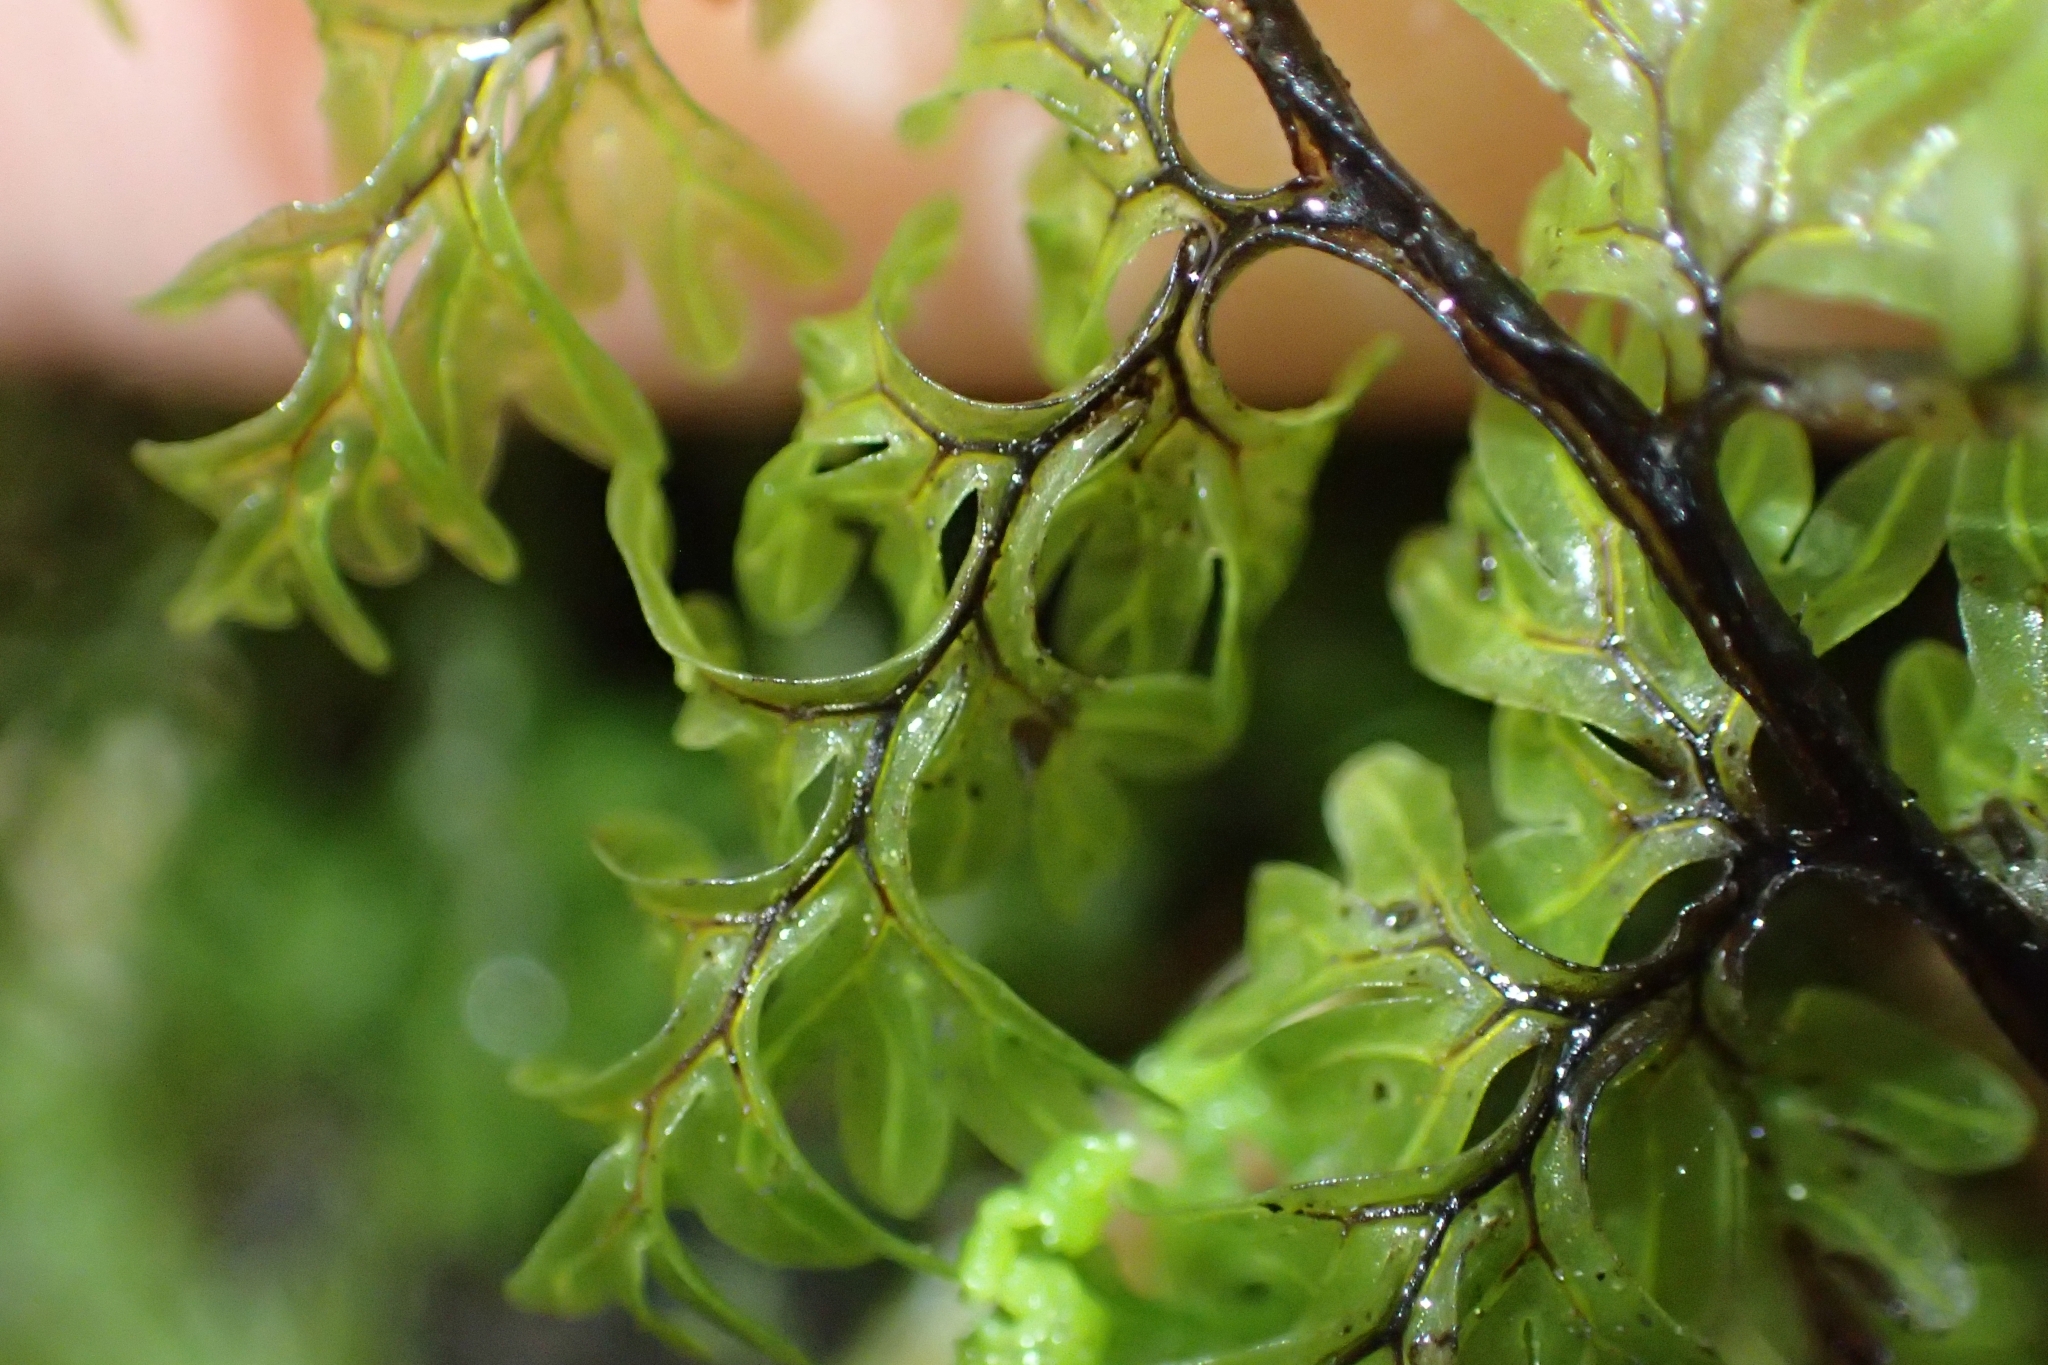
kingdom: Plantae
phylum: Tracheophyta
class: Polypodiopsida
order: Hymenophyllales
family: Hymenophyllaceae
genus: Hymenophyllum
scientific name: Hymenophyllum sanguinolentum
